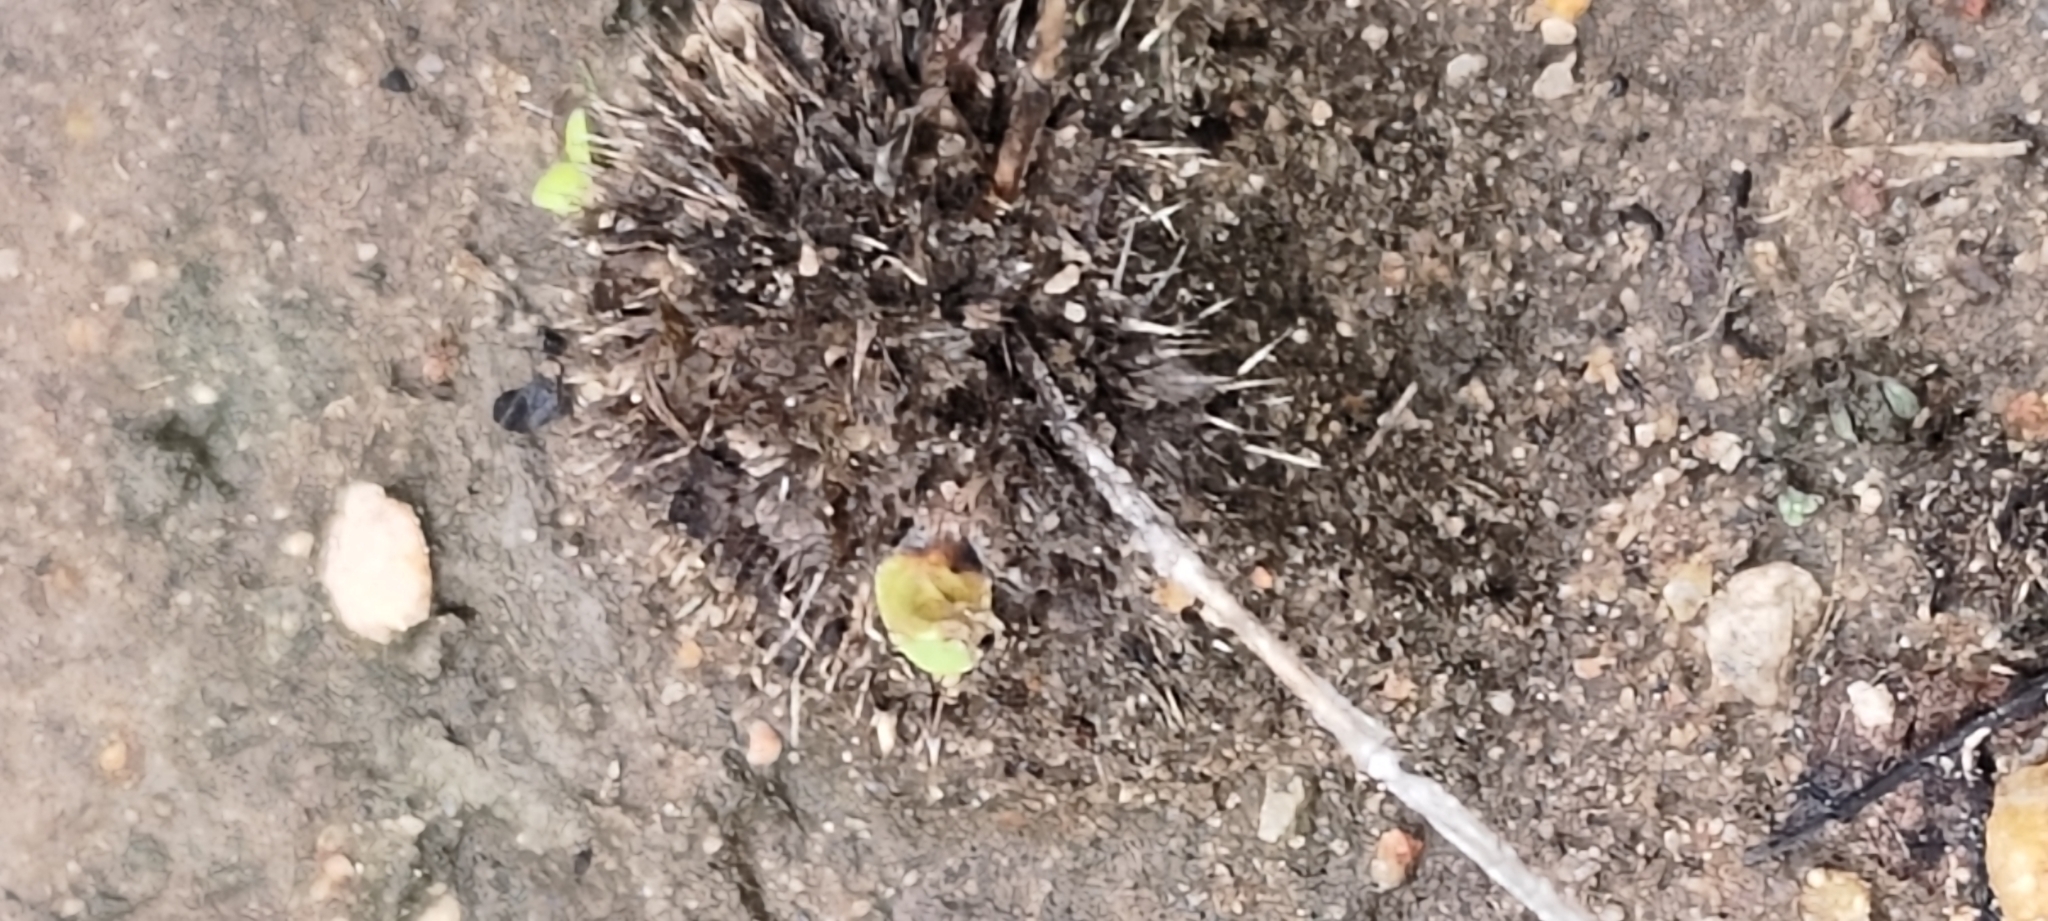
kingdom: Plantae
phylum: Tracheophyta
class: Magnoliopsida
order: Lamiales
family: Acanthaceae
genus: Lepidagathis
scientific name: Lepidagathis cristata
